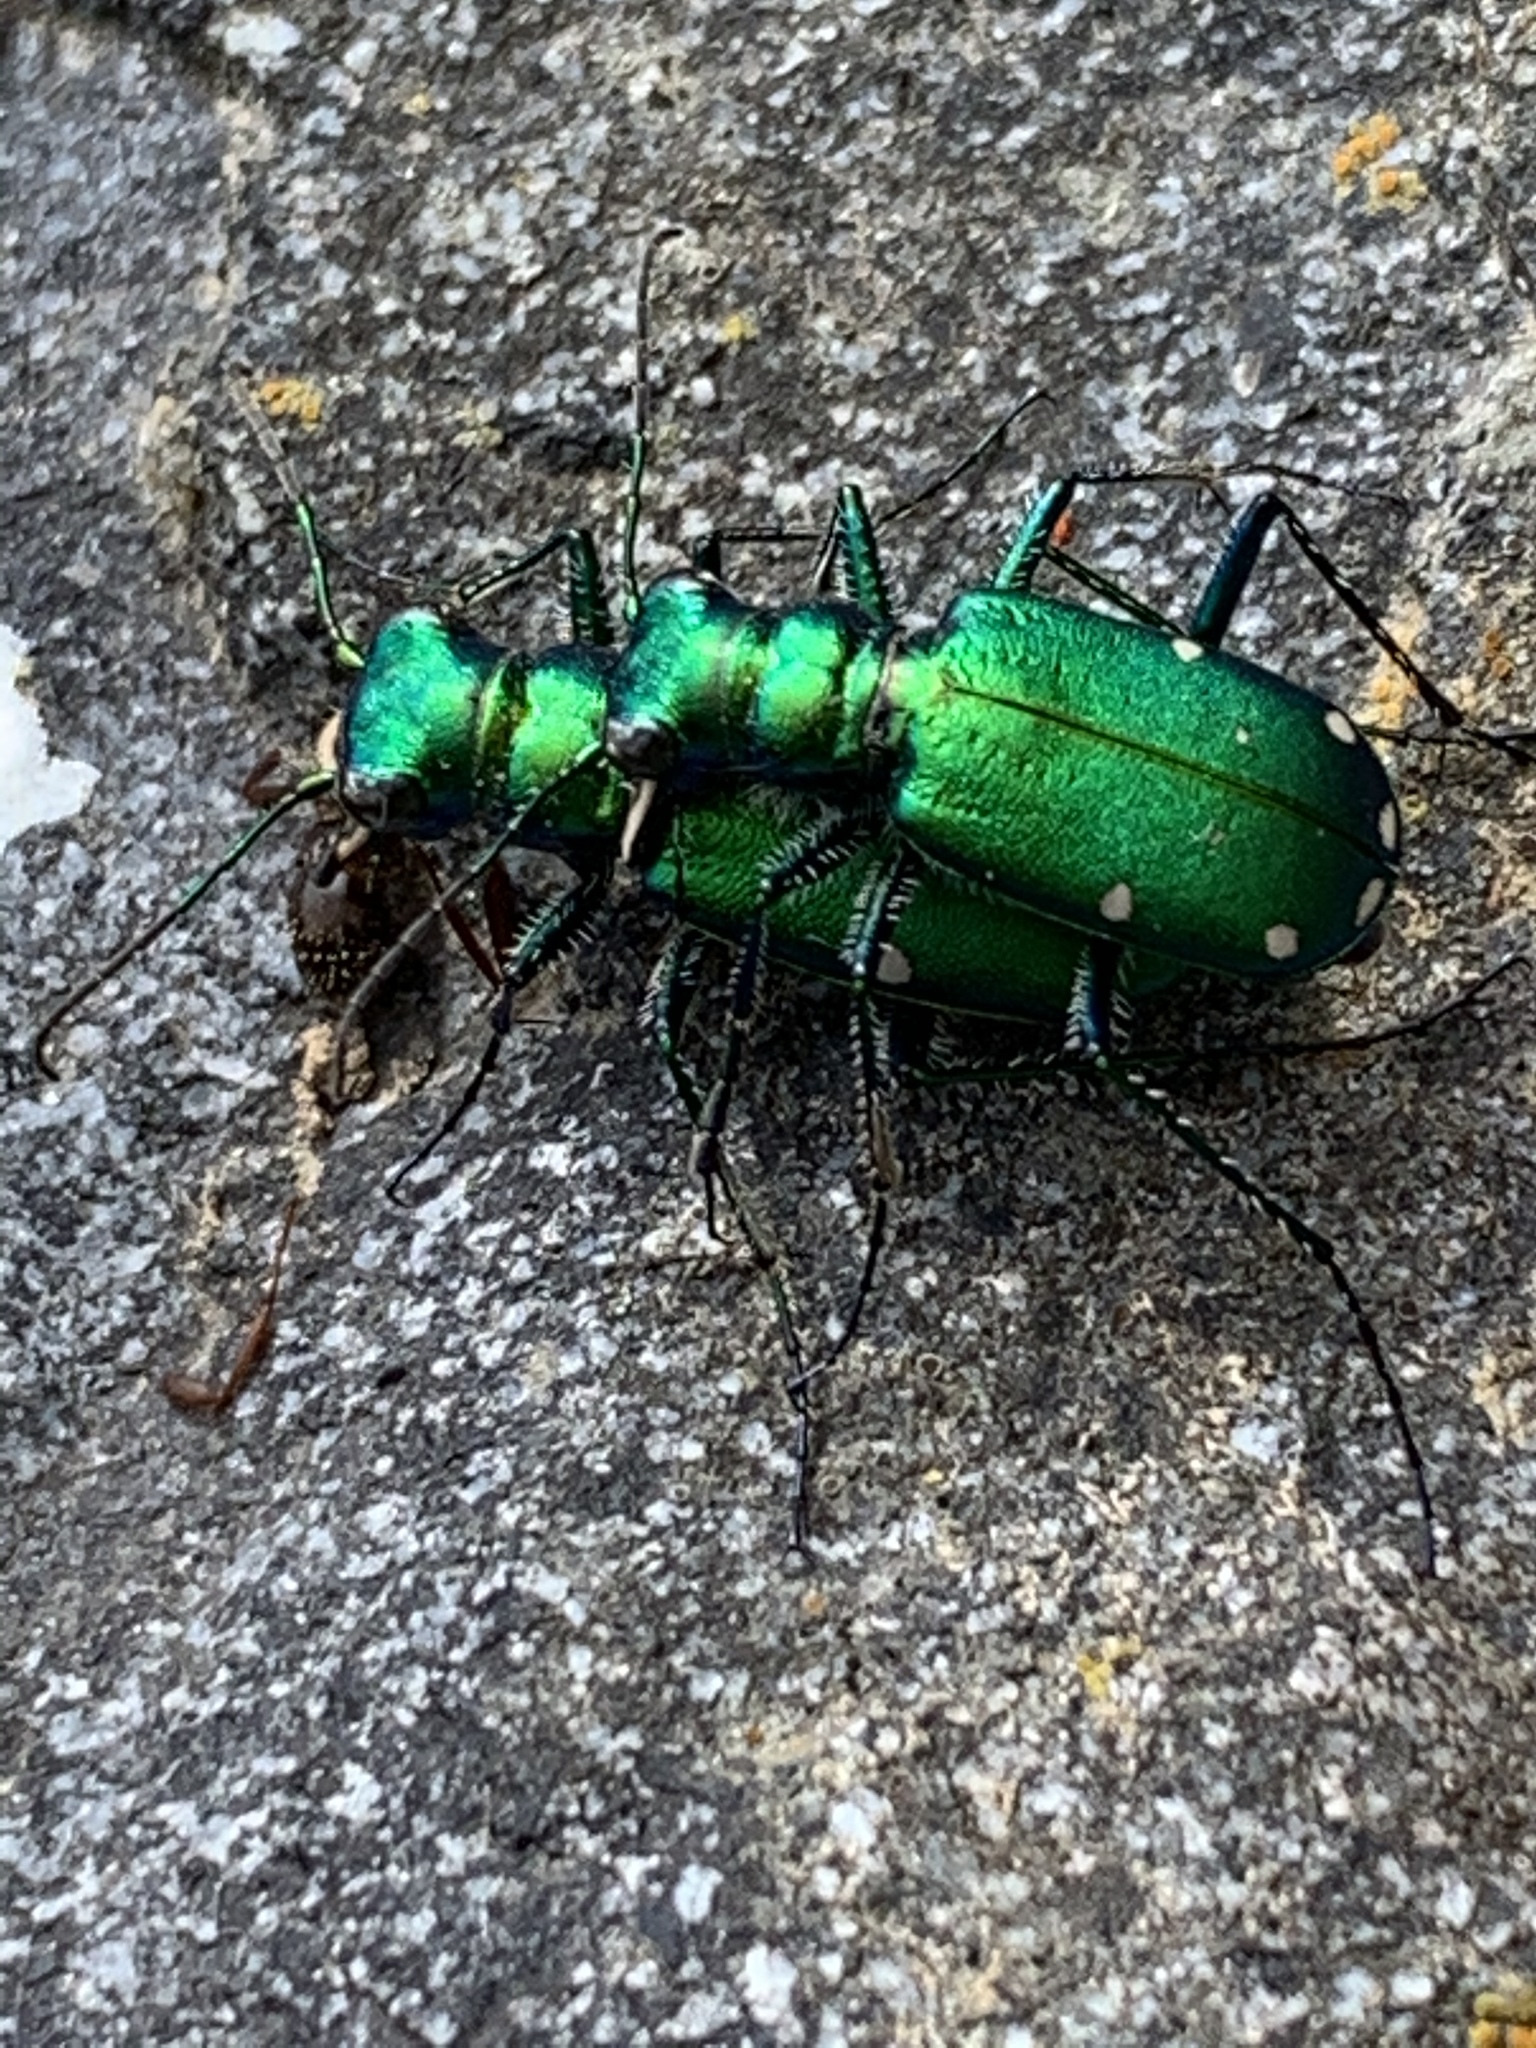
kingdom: Animalia
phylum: Arthropoda
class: Insecta
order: Coleoptera
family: Carabidae
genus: Cicindela
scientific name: Cicindela sexguttata
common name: Six-spotted tiger beetle
